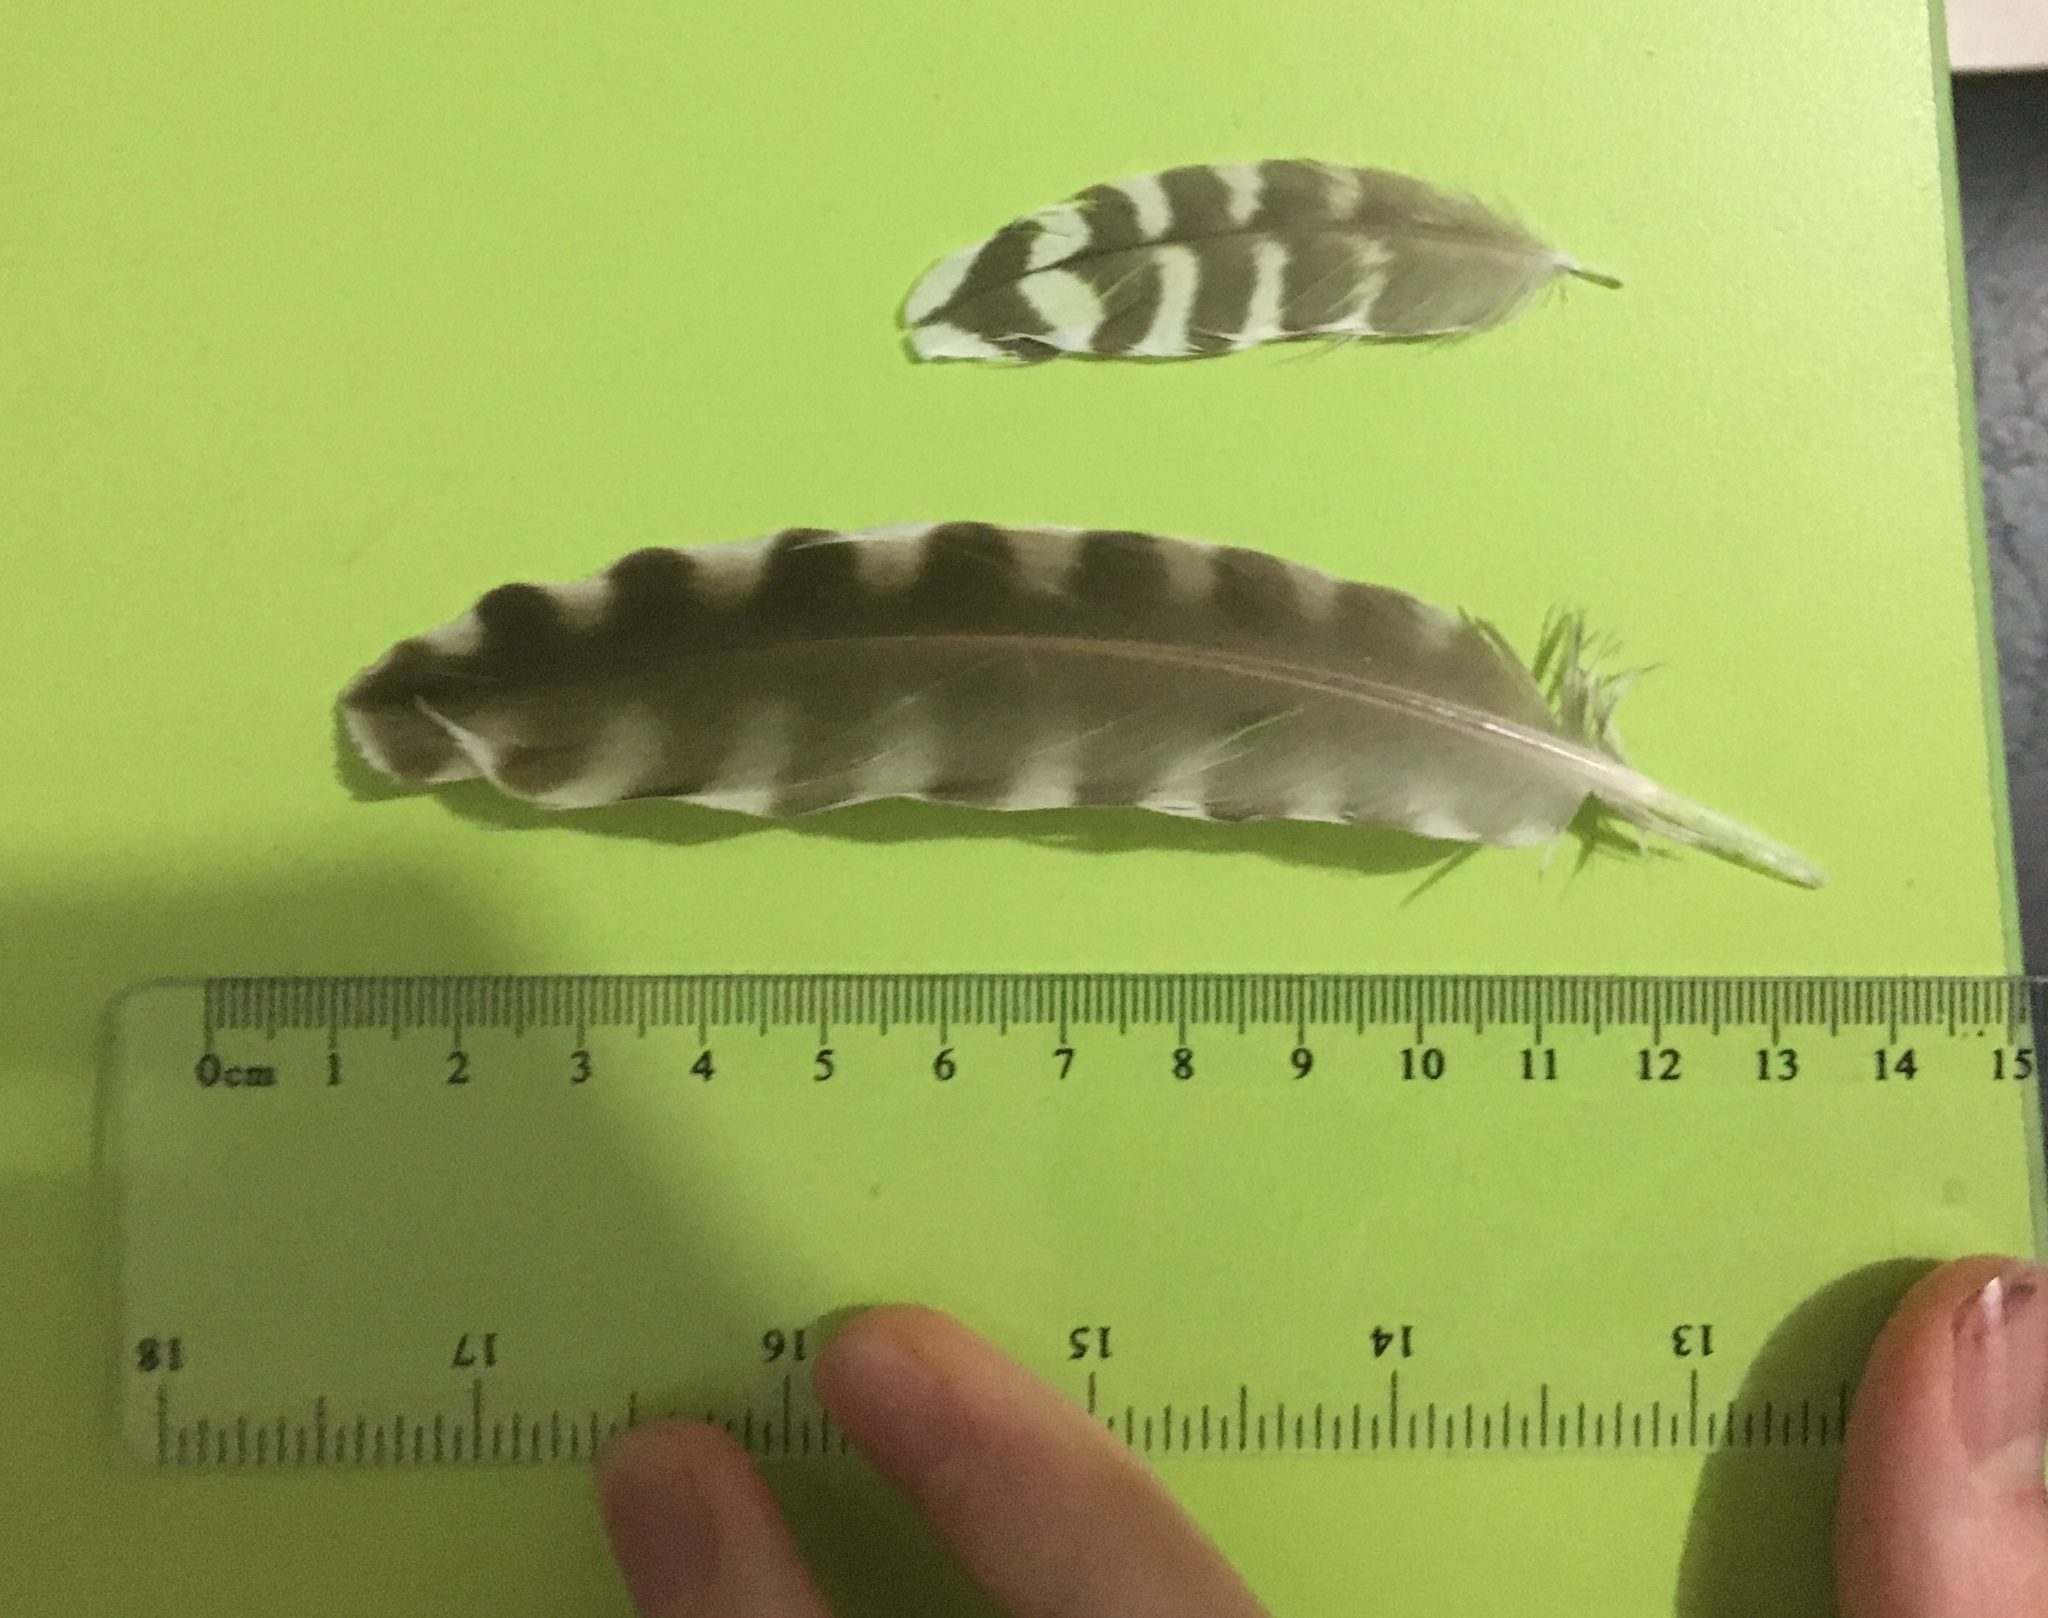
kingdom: Animalia
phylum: Chordata
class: Aves
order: Charadriiformes
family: Scolopacidae
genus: Numenius
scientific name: Numenius madagascariensis
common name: Far eastern curlew
